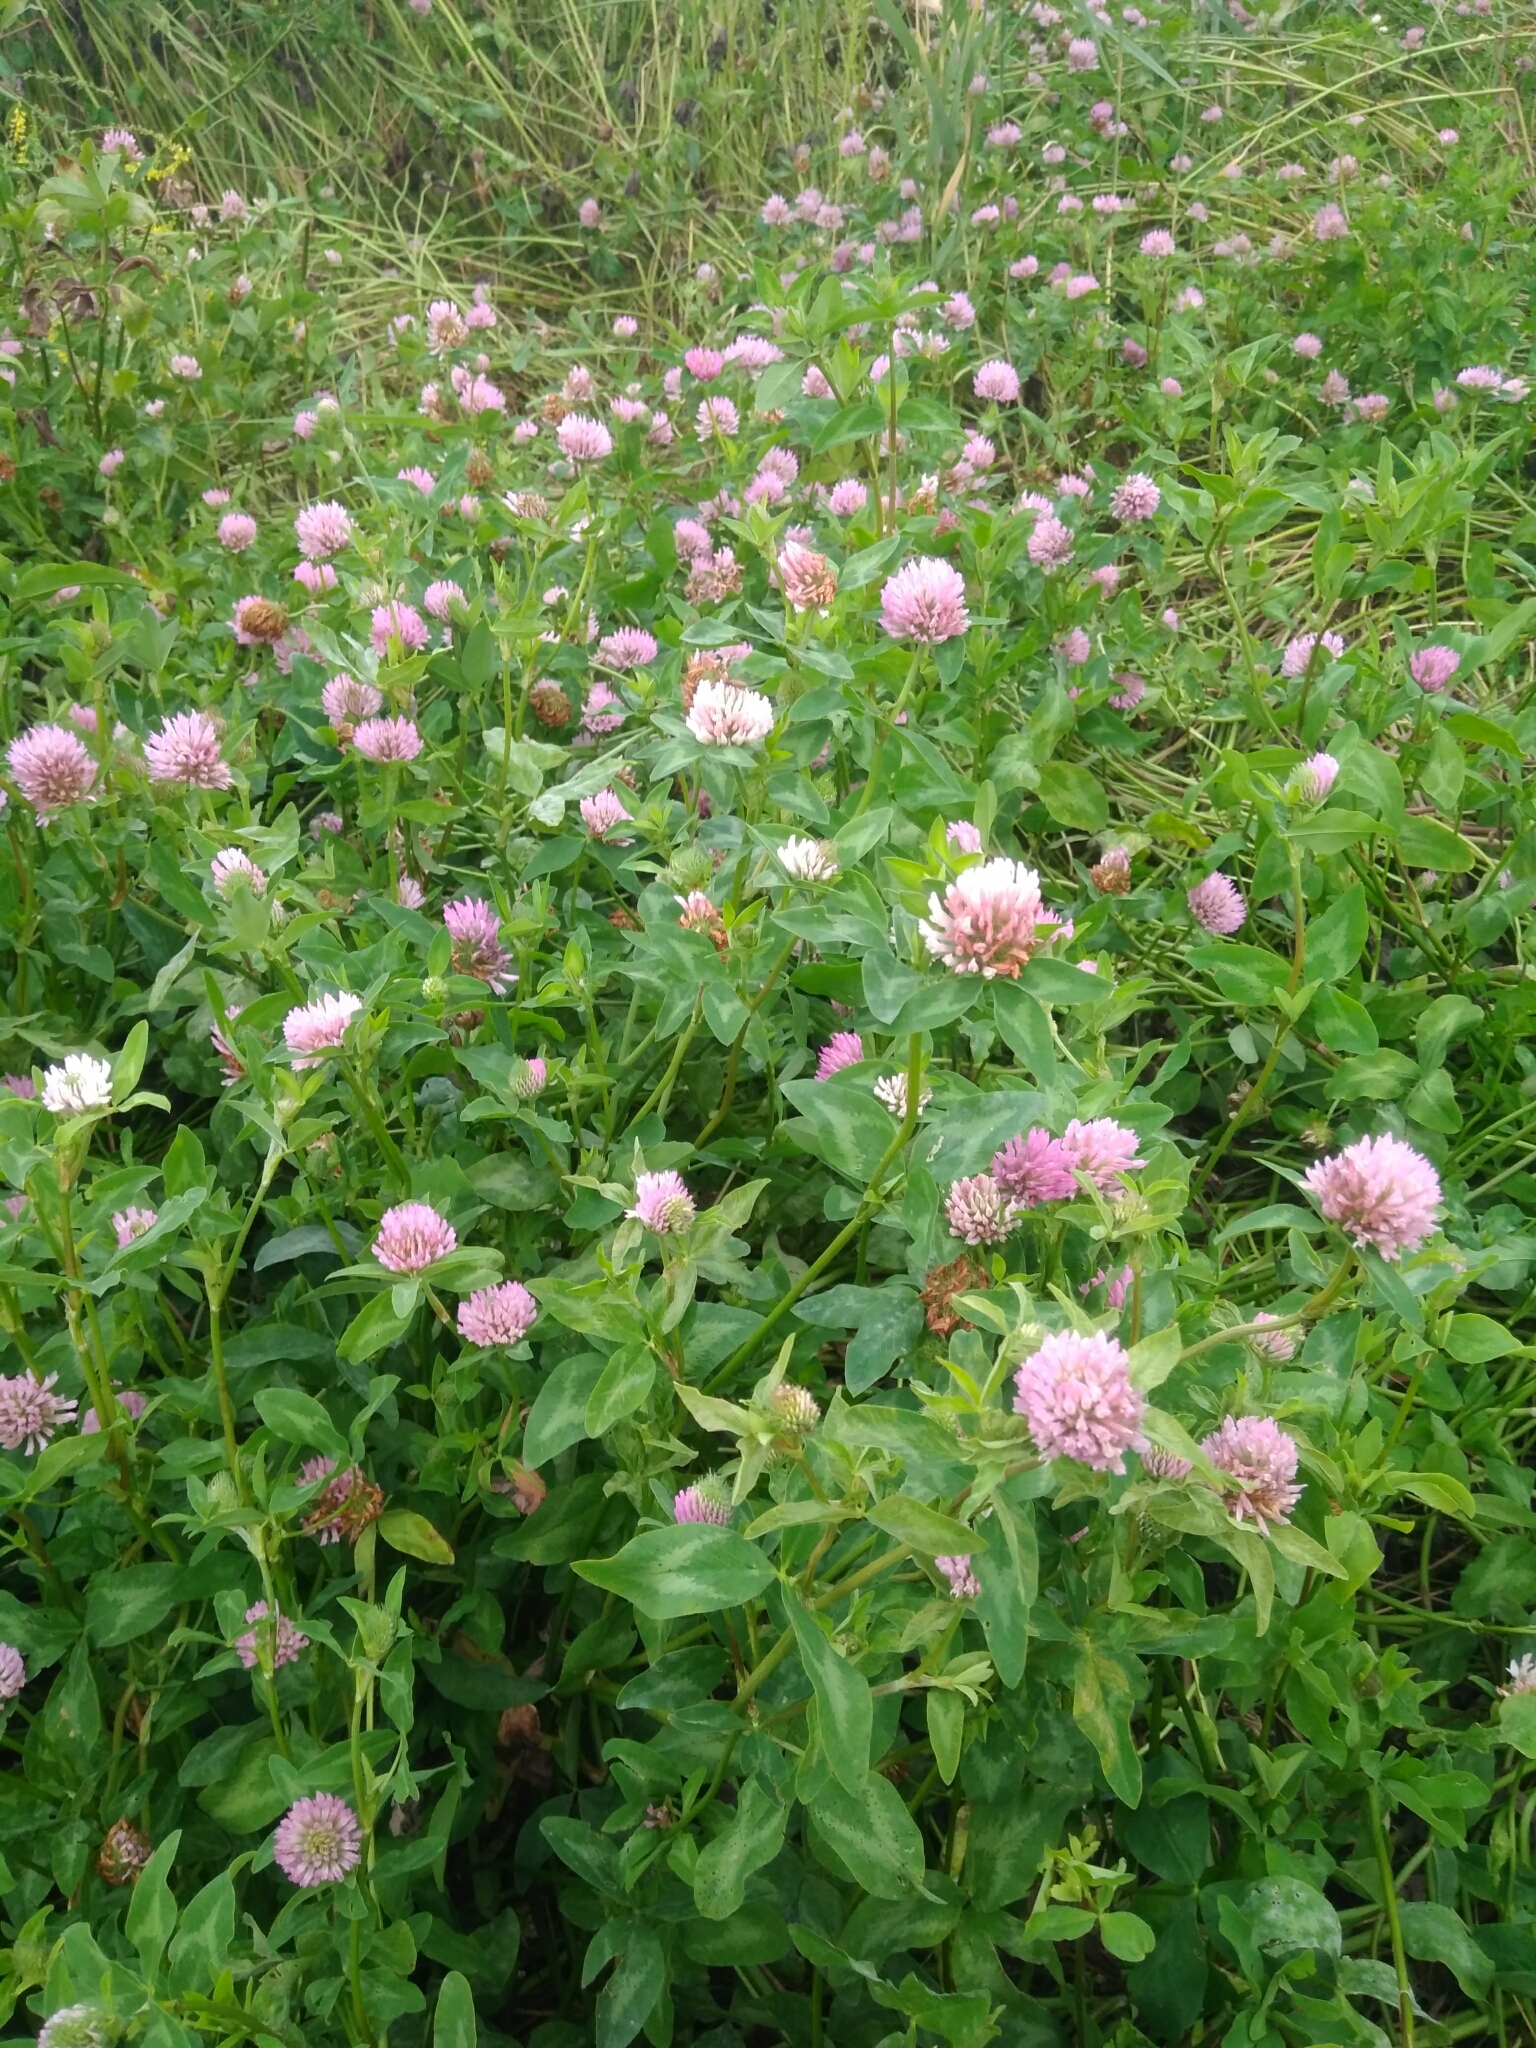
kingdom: Plantae
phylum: Tracheophyta
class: Magnoliopsida
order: Fabales
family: Fabaceae
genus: Trifolium
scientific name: Trifolium pratense
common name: Red clover
